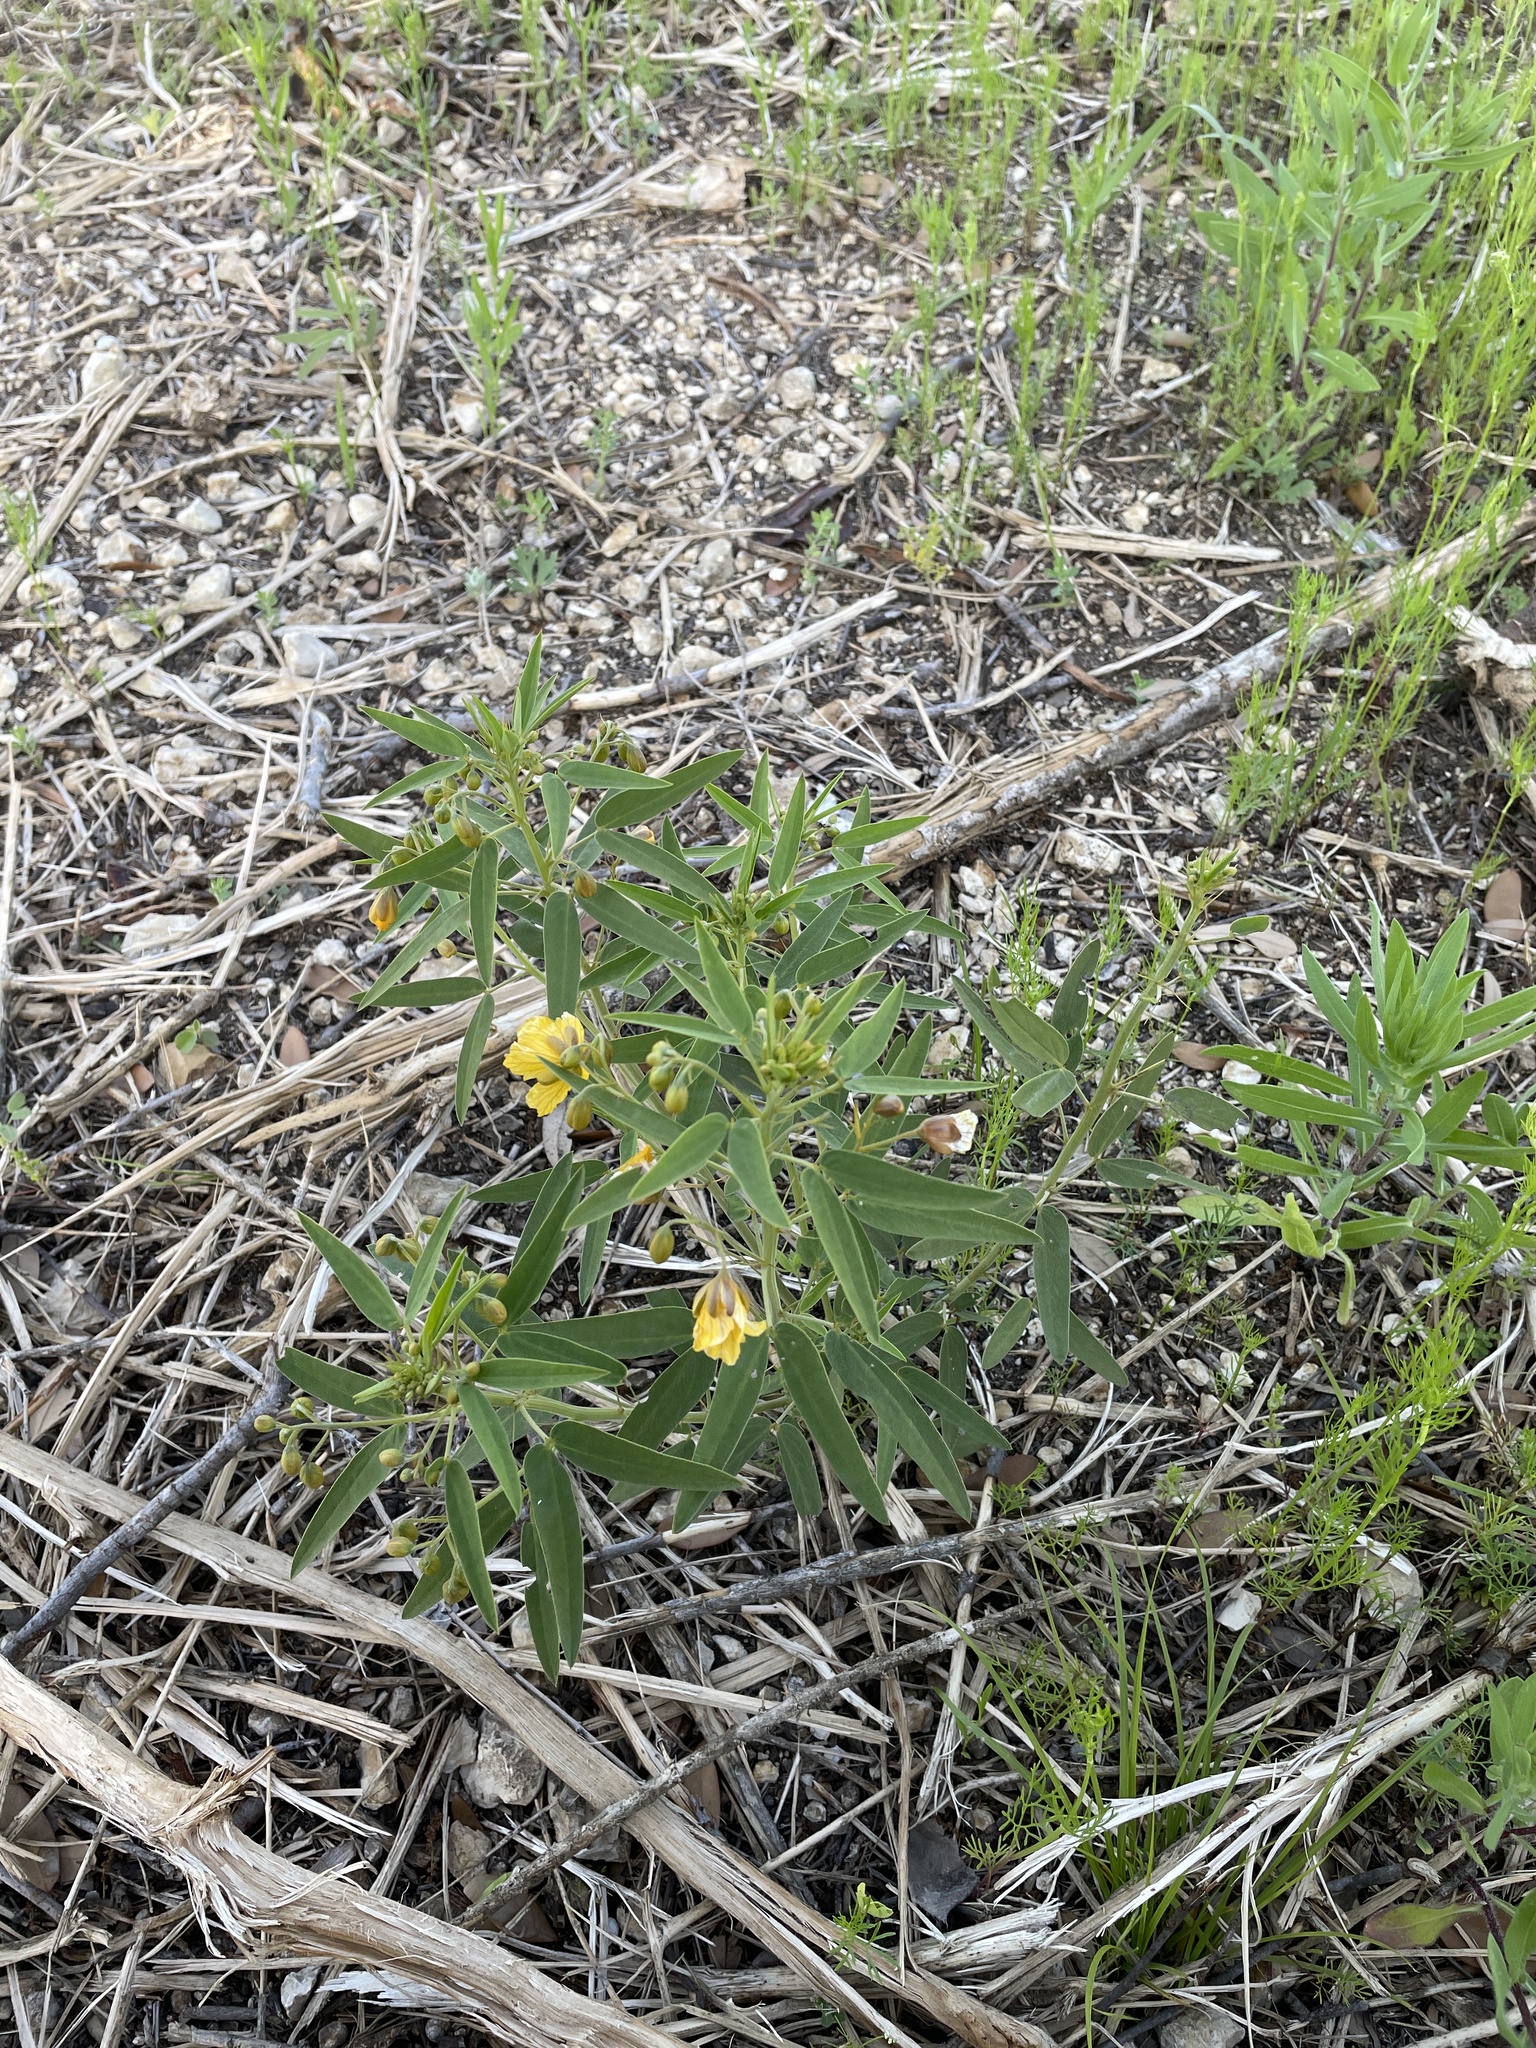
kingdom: Plantae
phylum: Tracheophyta
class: Magnoliopsida
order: Fabales
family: Fabaceae
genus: Senna
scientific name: Senna roemeriana
